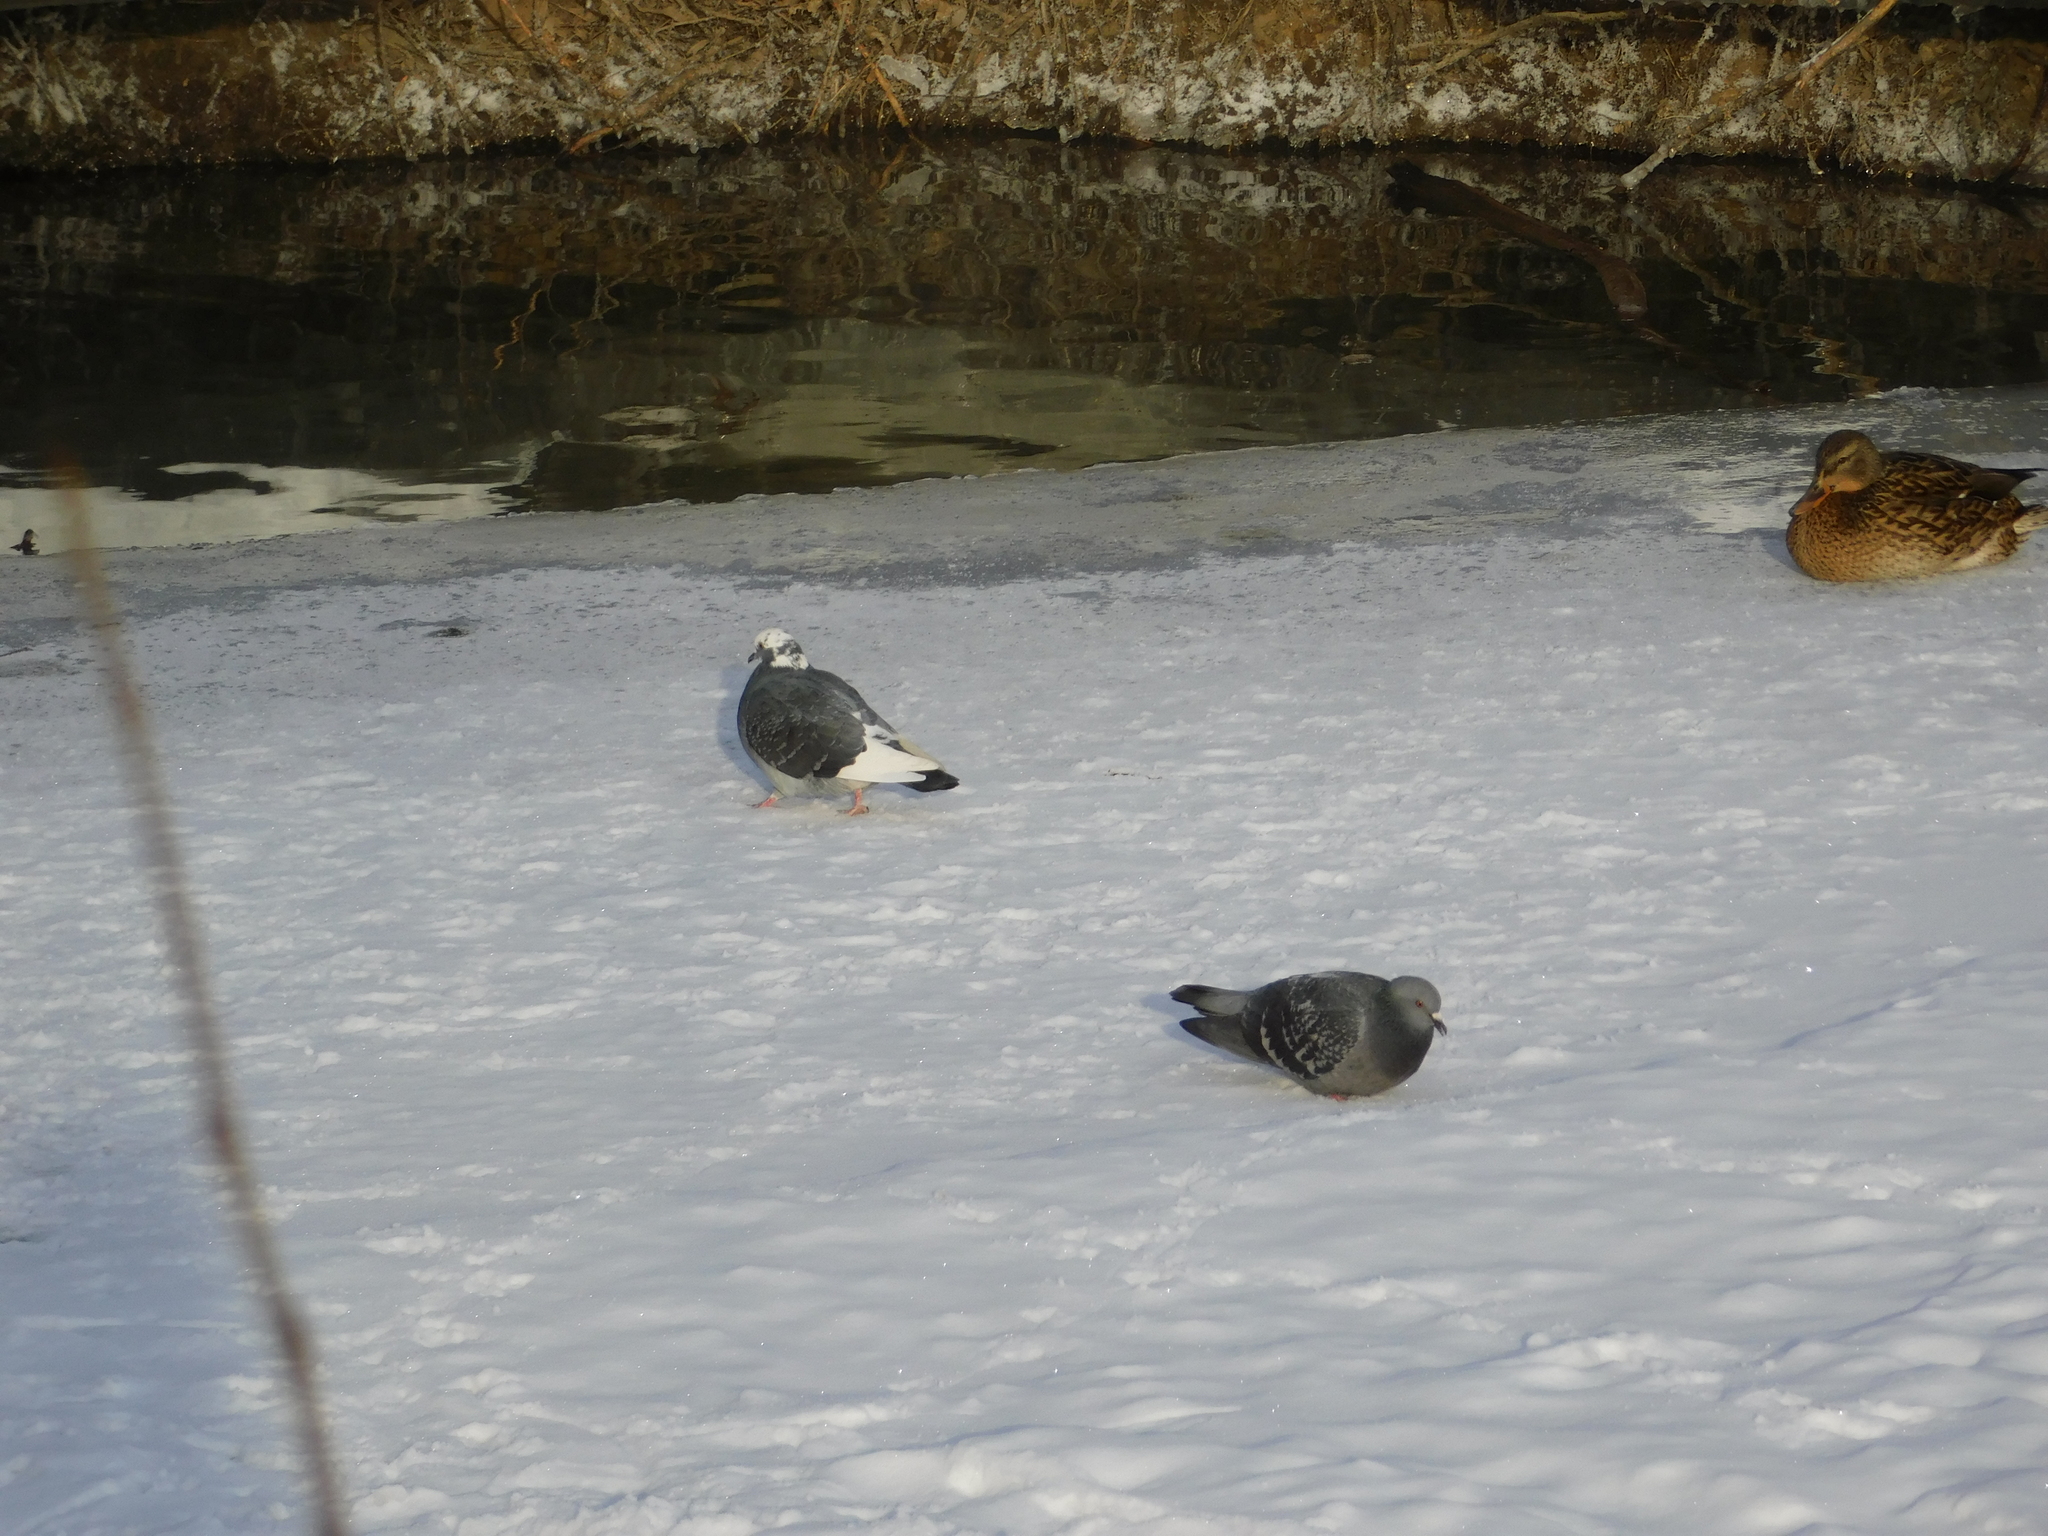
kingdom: Animalia
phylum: Chordata
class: Aves
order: Columbiformes
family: Columbidae
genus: Columba
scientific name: Columba livia
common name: Rock pigeon
